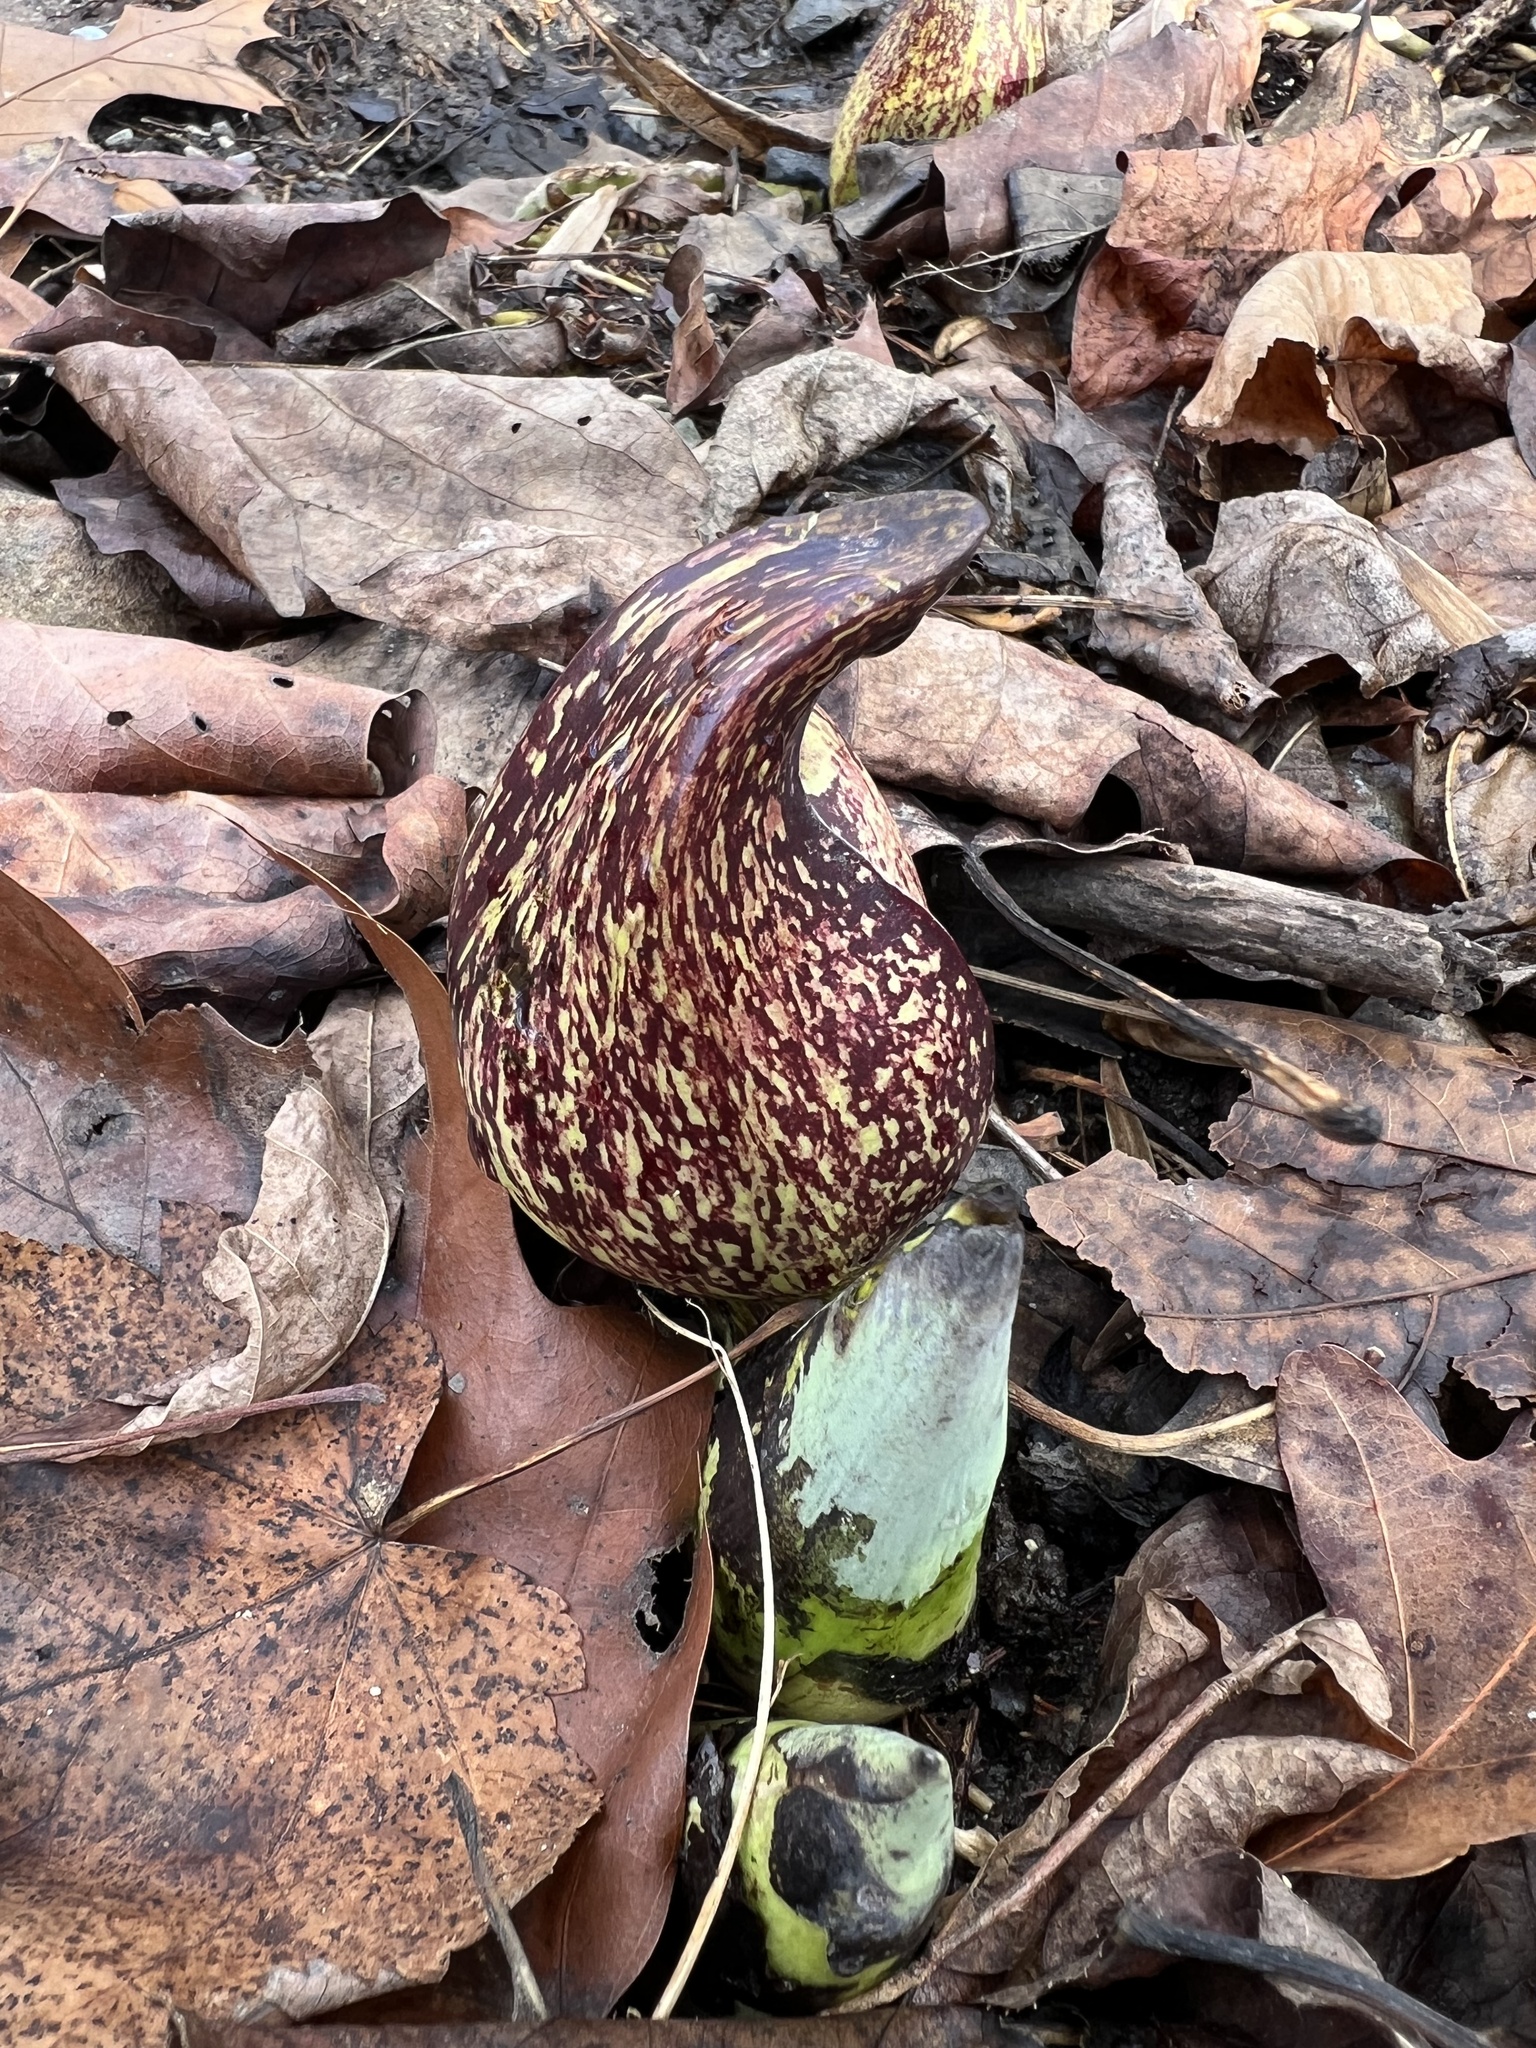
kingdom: Plantae
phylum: Tracheophyta
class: Liliopsida
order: Alismatales
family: Araceae
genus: Symplocarpus
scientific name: Symplocarpus foetidus
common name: Eastern skunk cabbage
